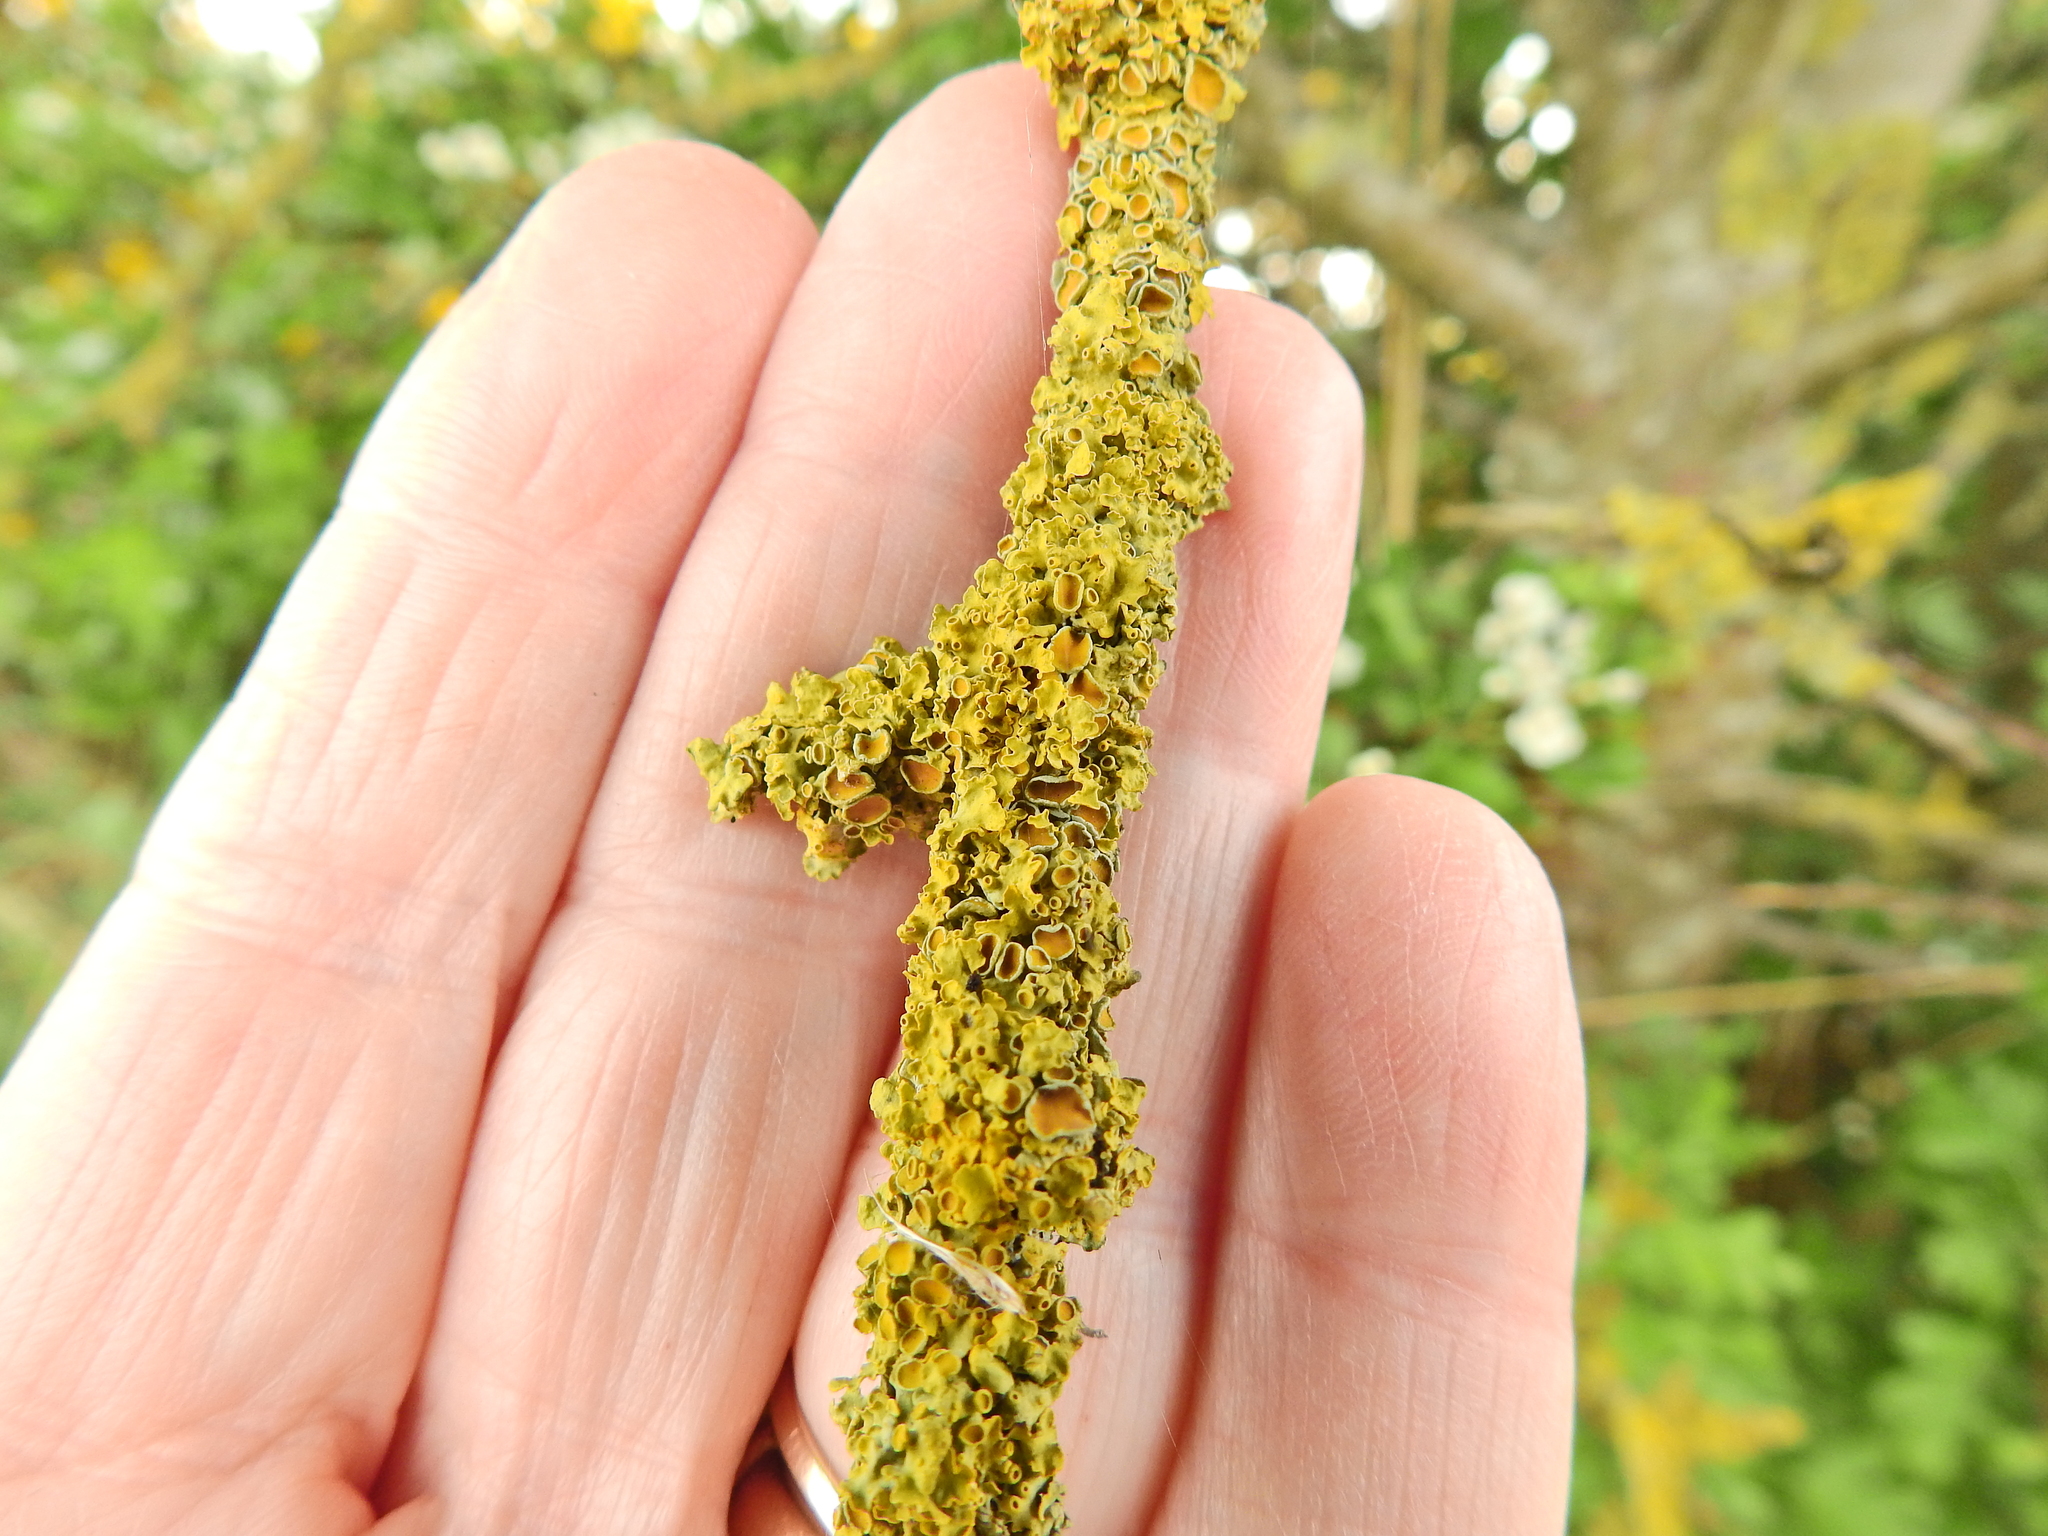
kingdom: Fungi
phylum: Ascomycota
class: Lecanoromycetes
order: Teloschistales
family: Teloschistaceae
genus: Xanthoria
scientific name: Xanthoria parietina
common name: Common orange lichen
